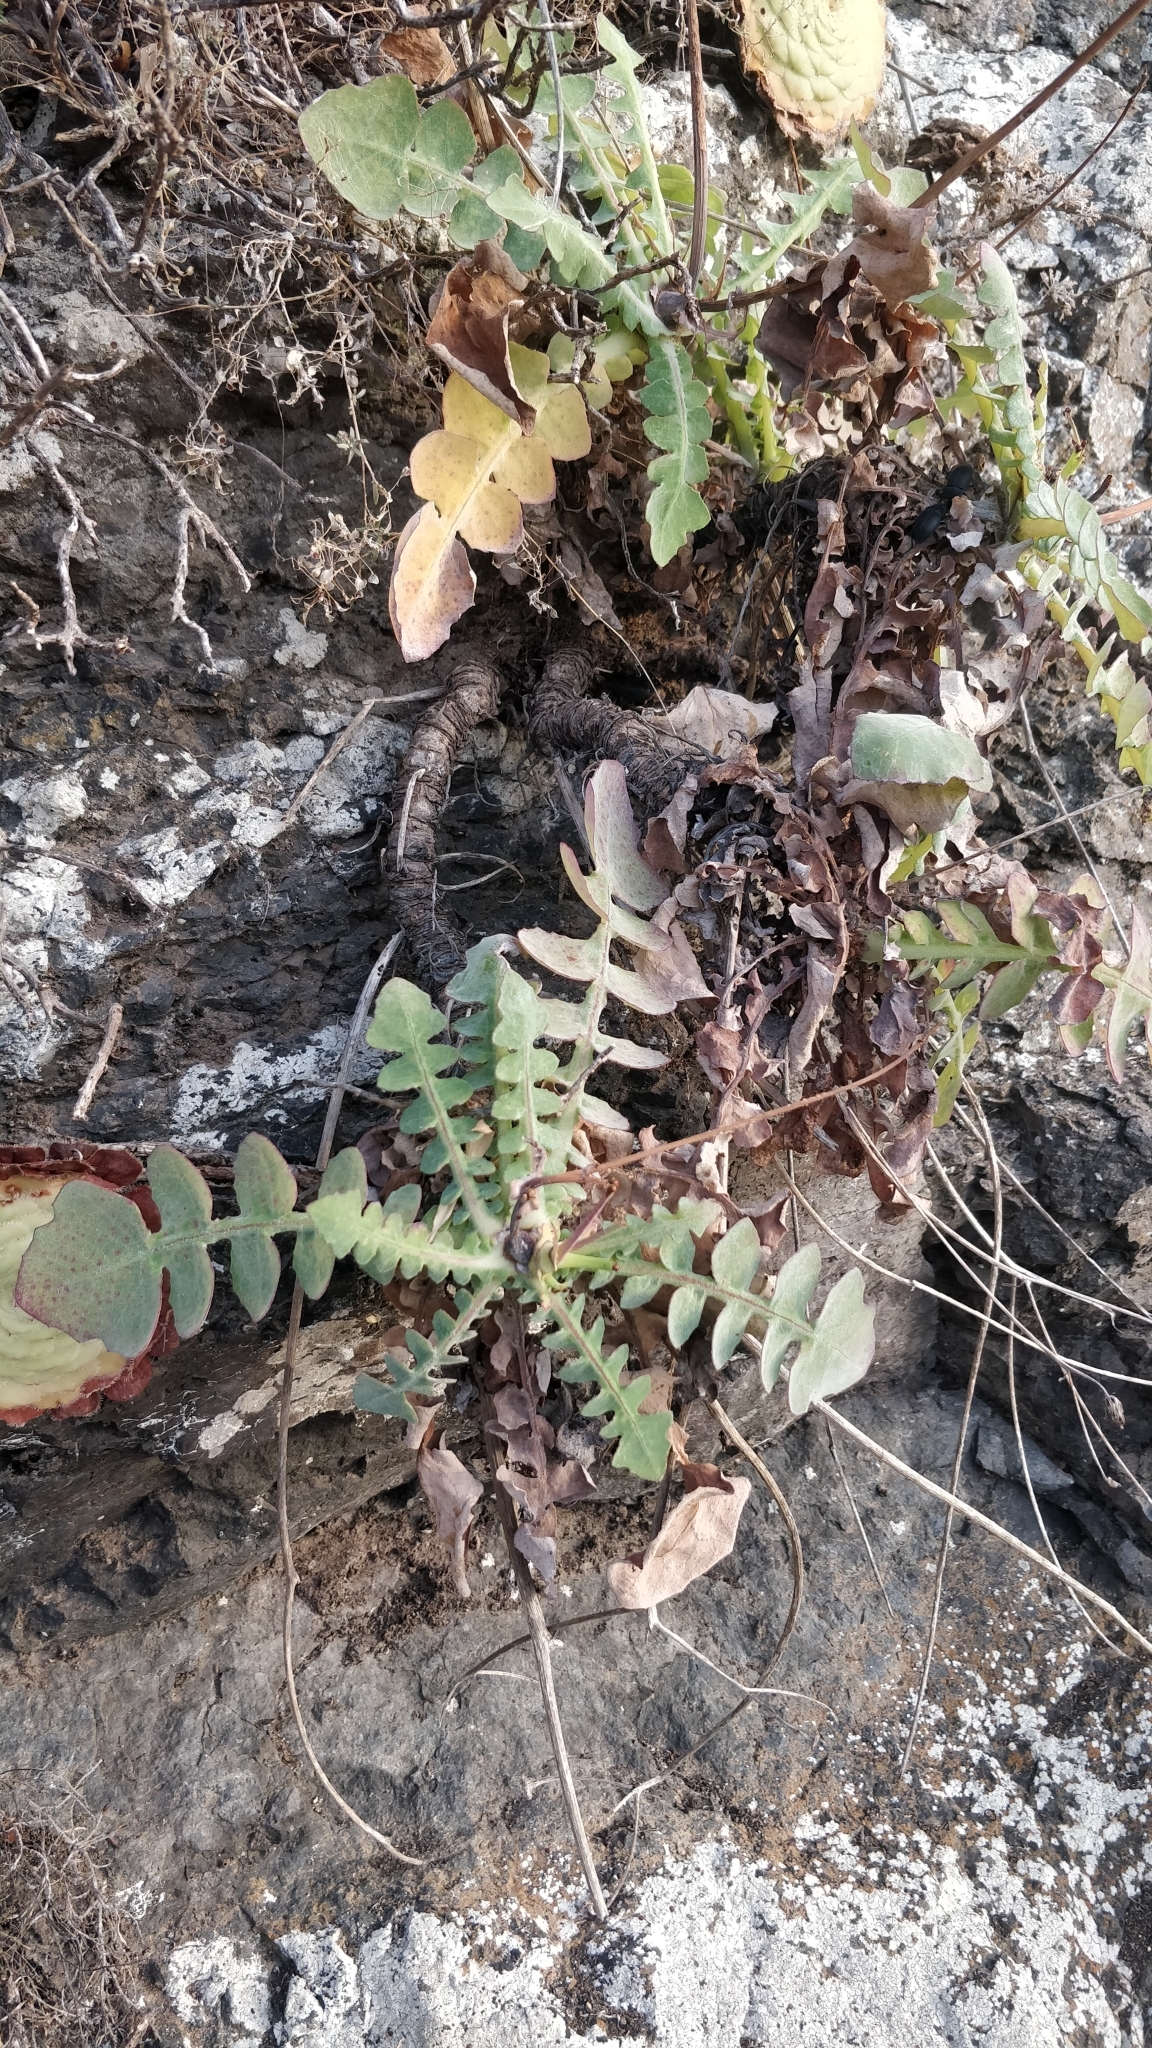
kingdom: Plantae
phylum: Tracheophyta
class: Magnoliopsida
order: Asterales
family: Asteraceae
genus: Sonchus
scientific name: Sonchus radicatus
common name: Long-rooted sow-thistle
